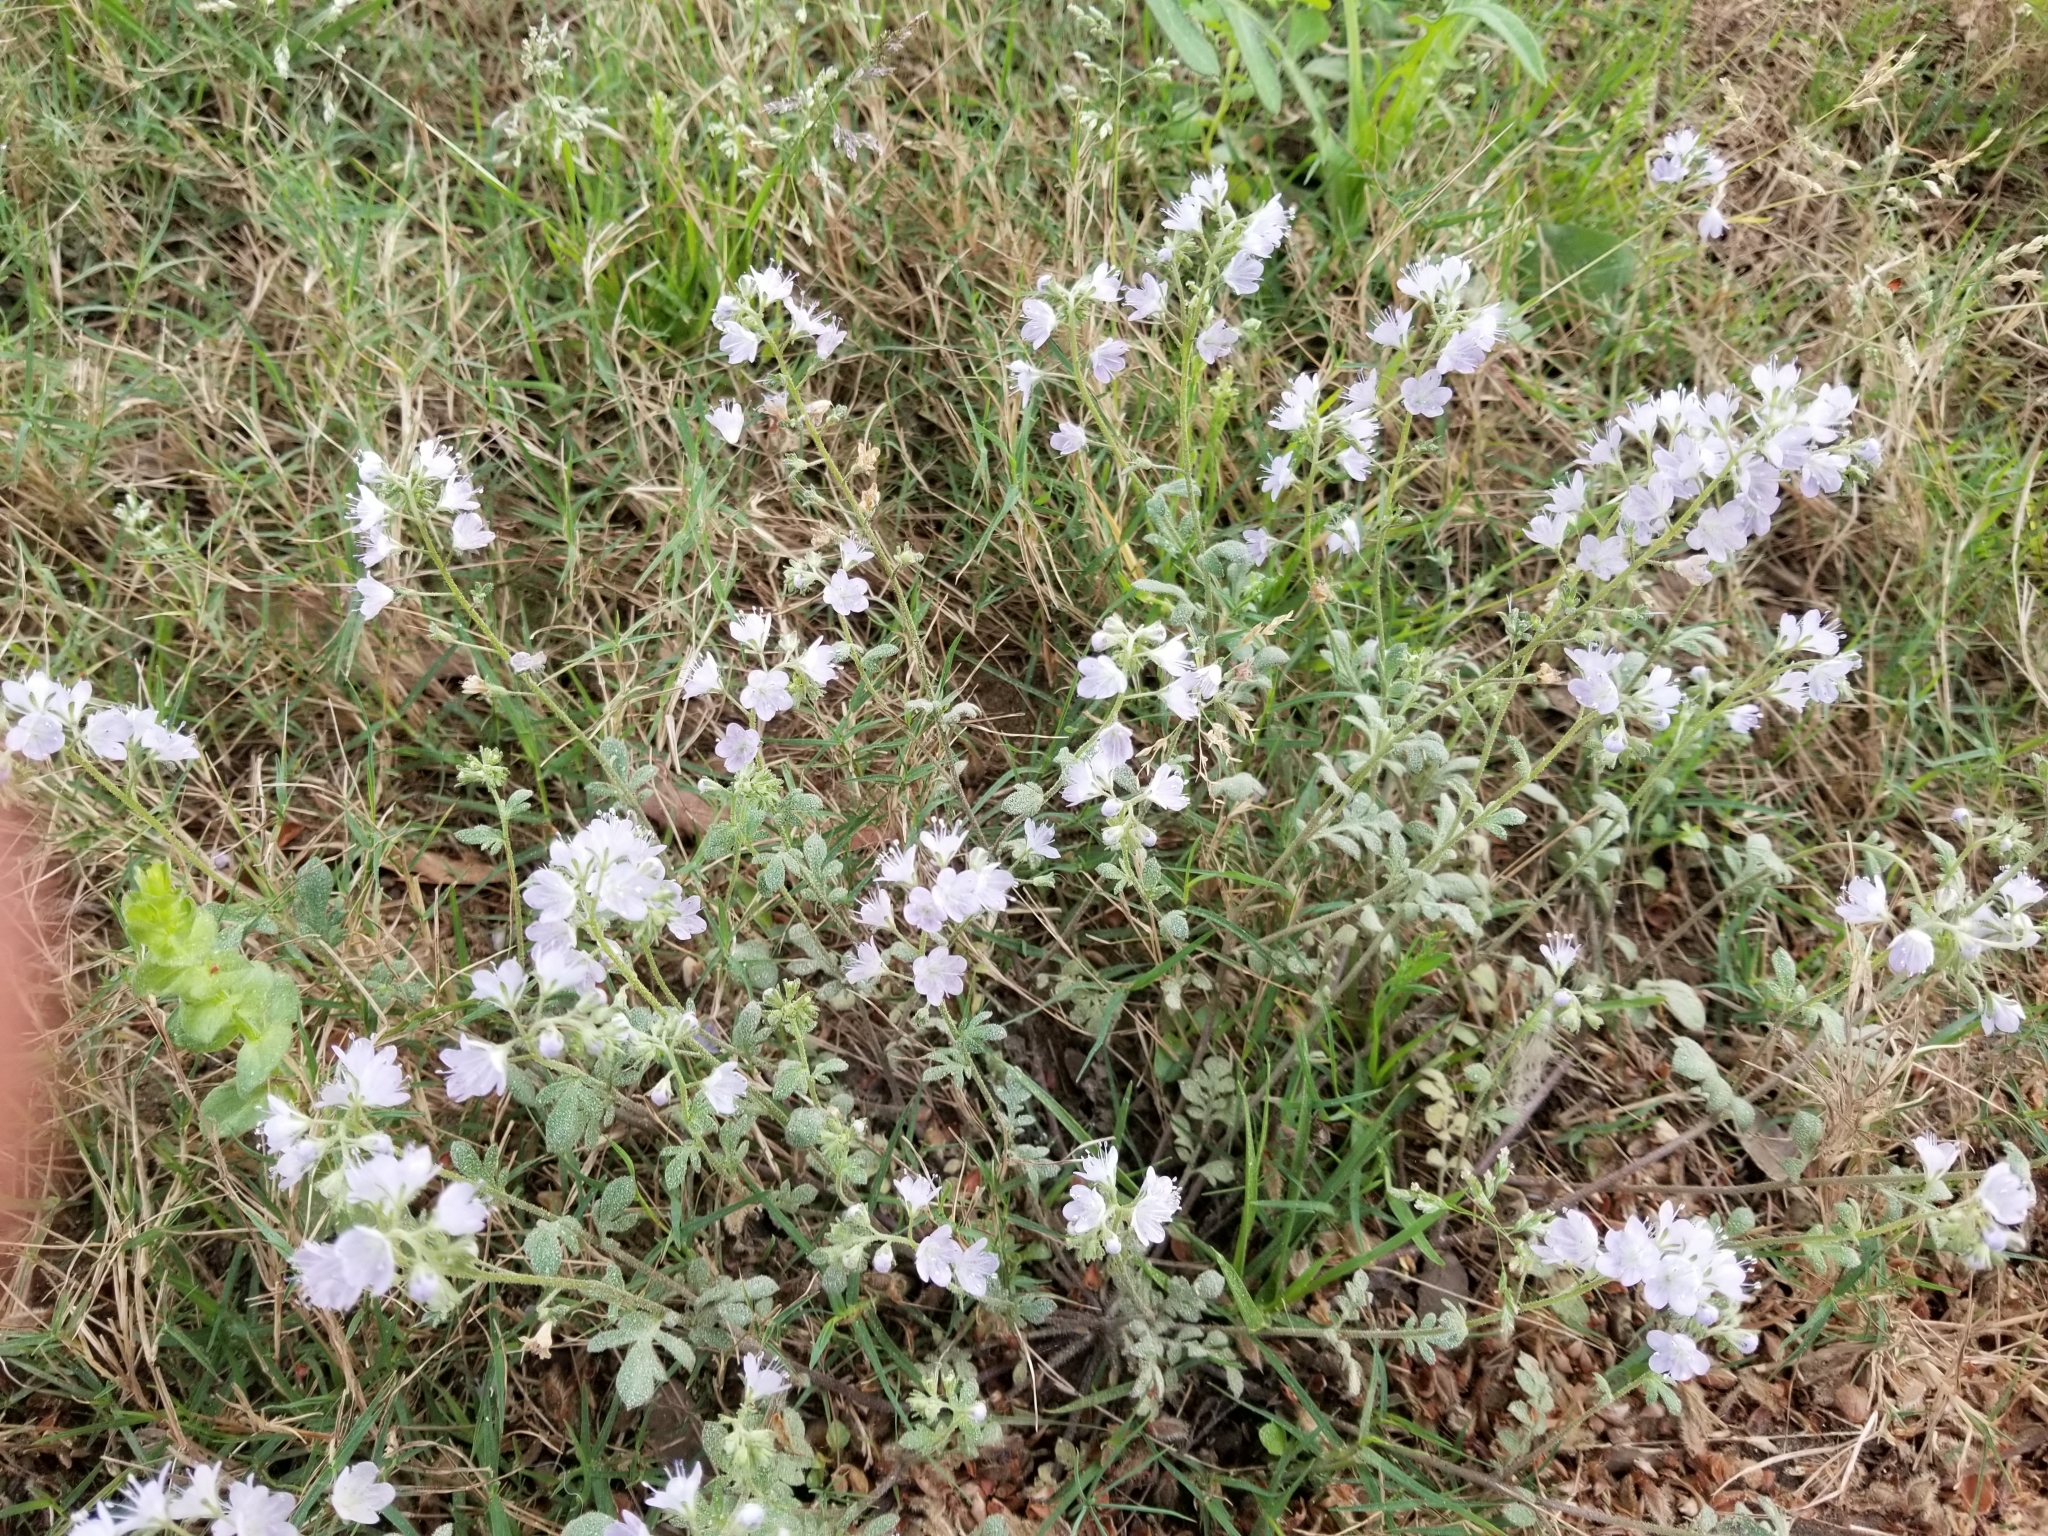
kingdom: Plantae
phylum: Tracheophyta
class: Magnoliopsida
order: Boraginales
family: Hydrophyllaceae
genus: Phacelia
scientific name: Phacelia dubia
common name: Appalachian phacelia
